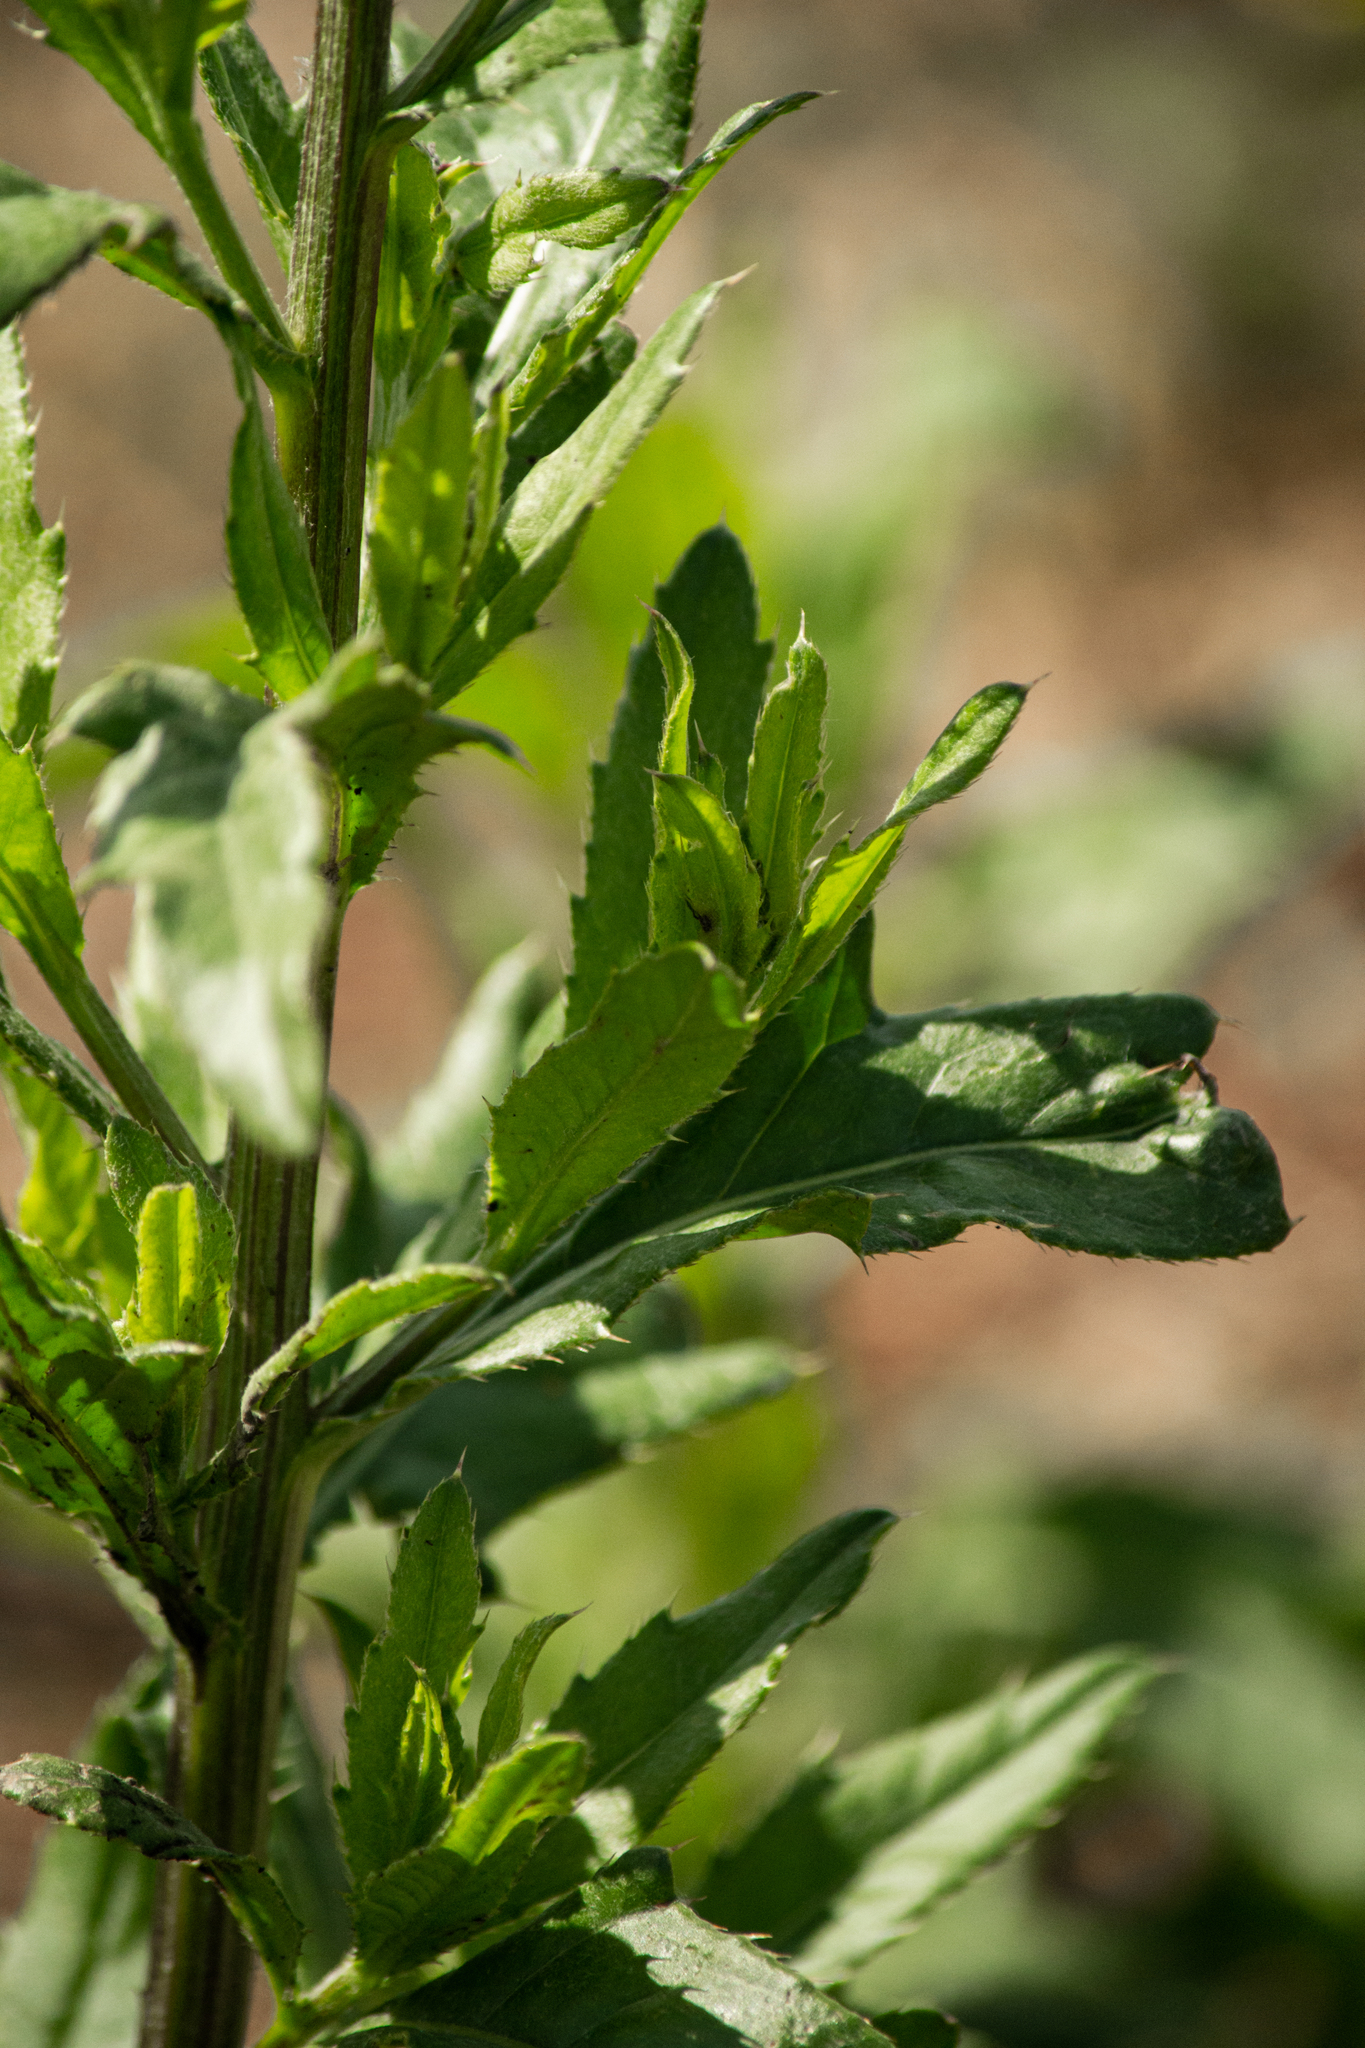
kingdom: Plantae
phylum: Tracheophyta
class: Magnoliopsida
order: Asterales
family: Asteraceae
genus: Cirsium
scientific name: Cirsium arvense
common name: Creeping thistle
